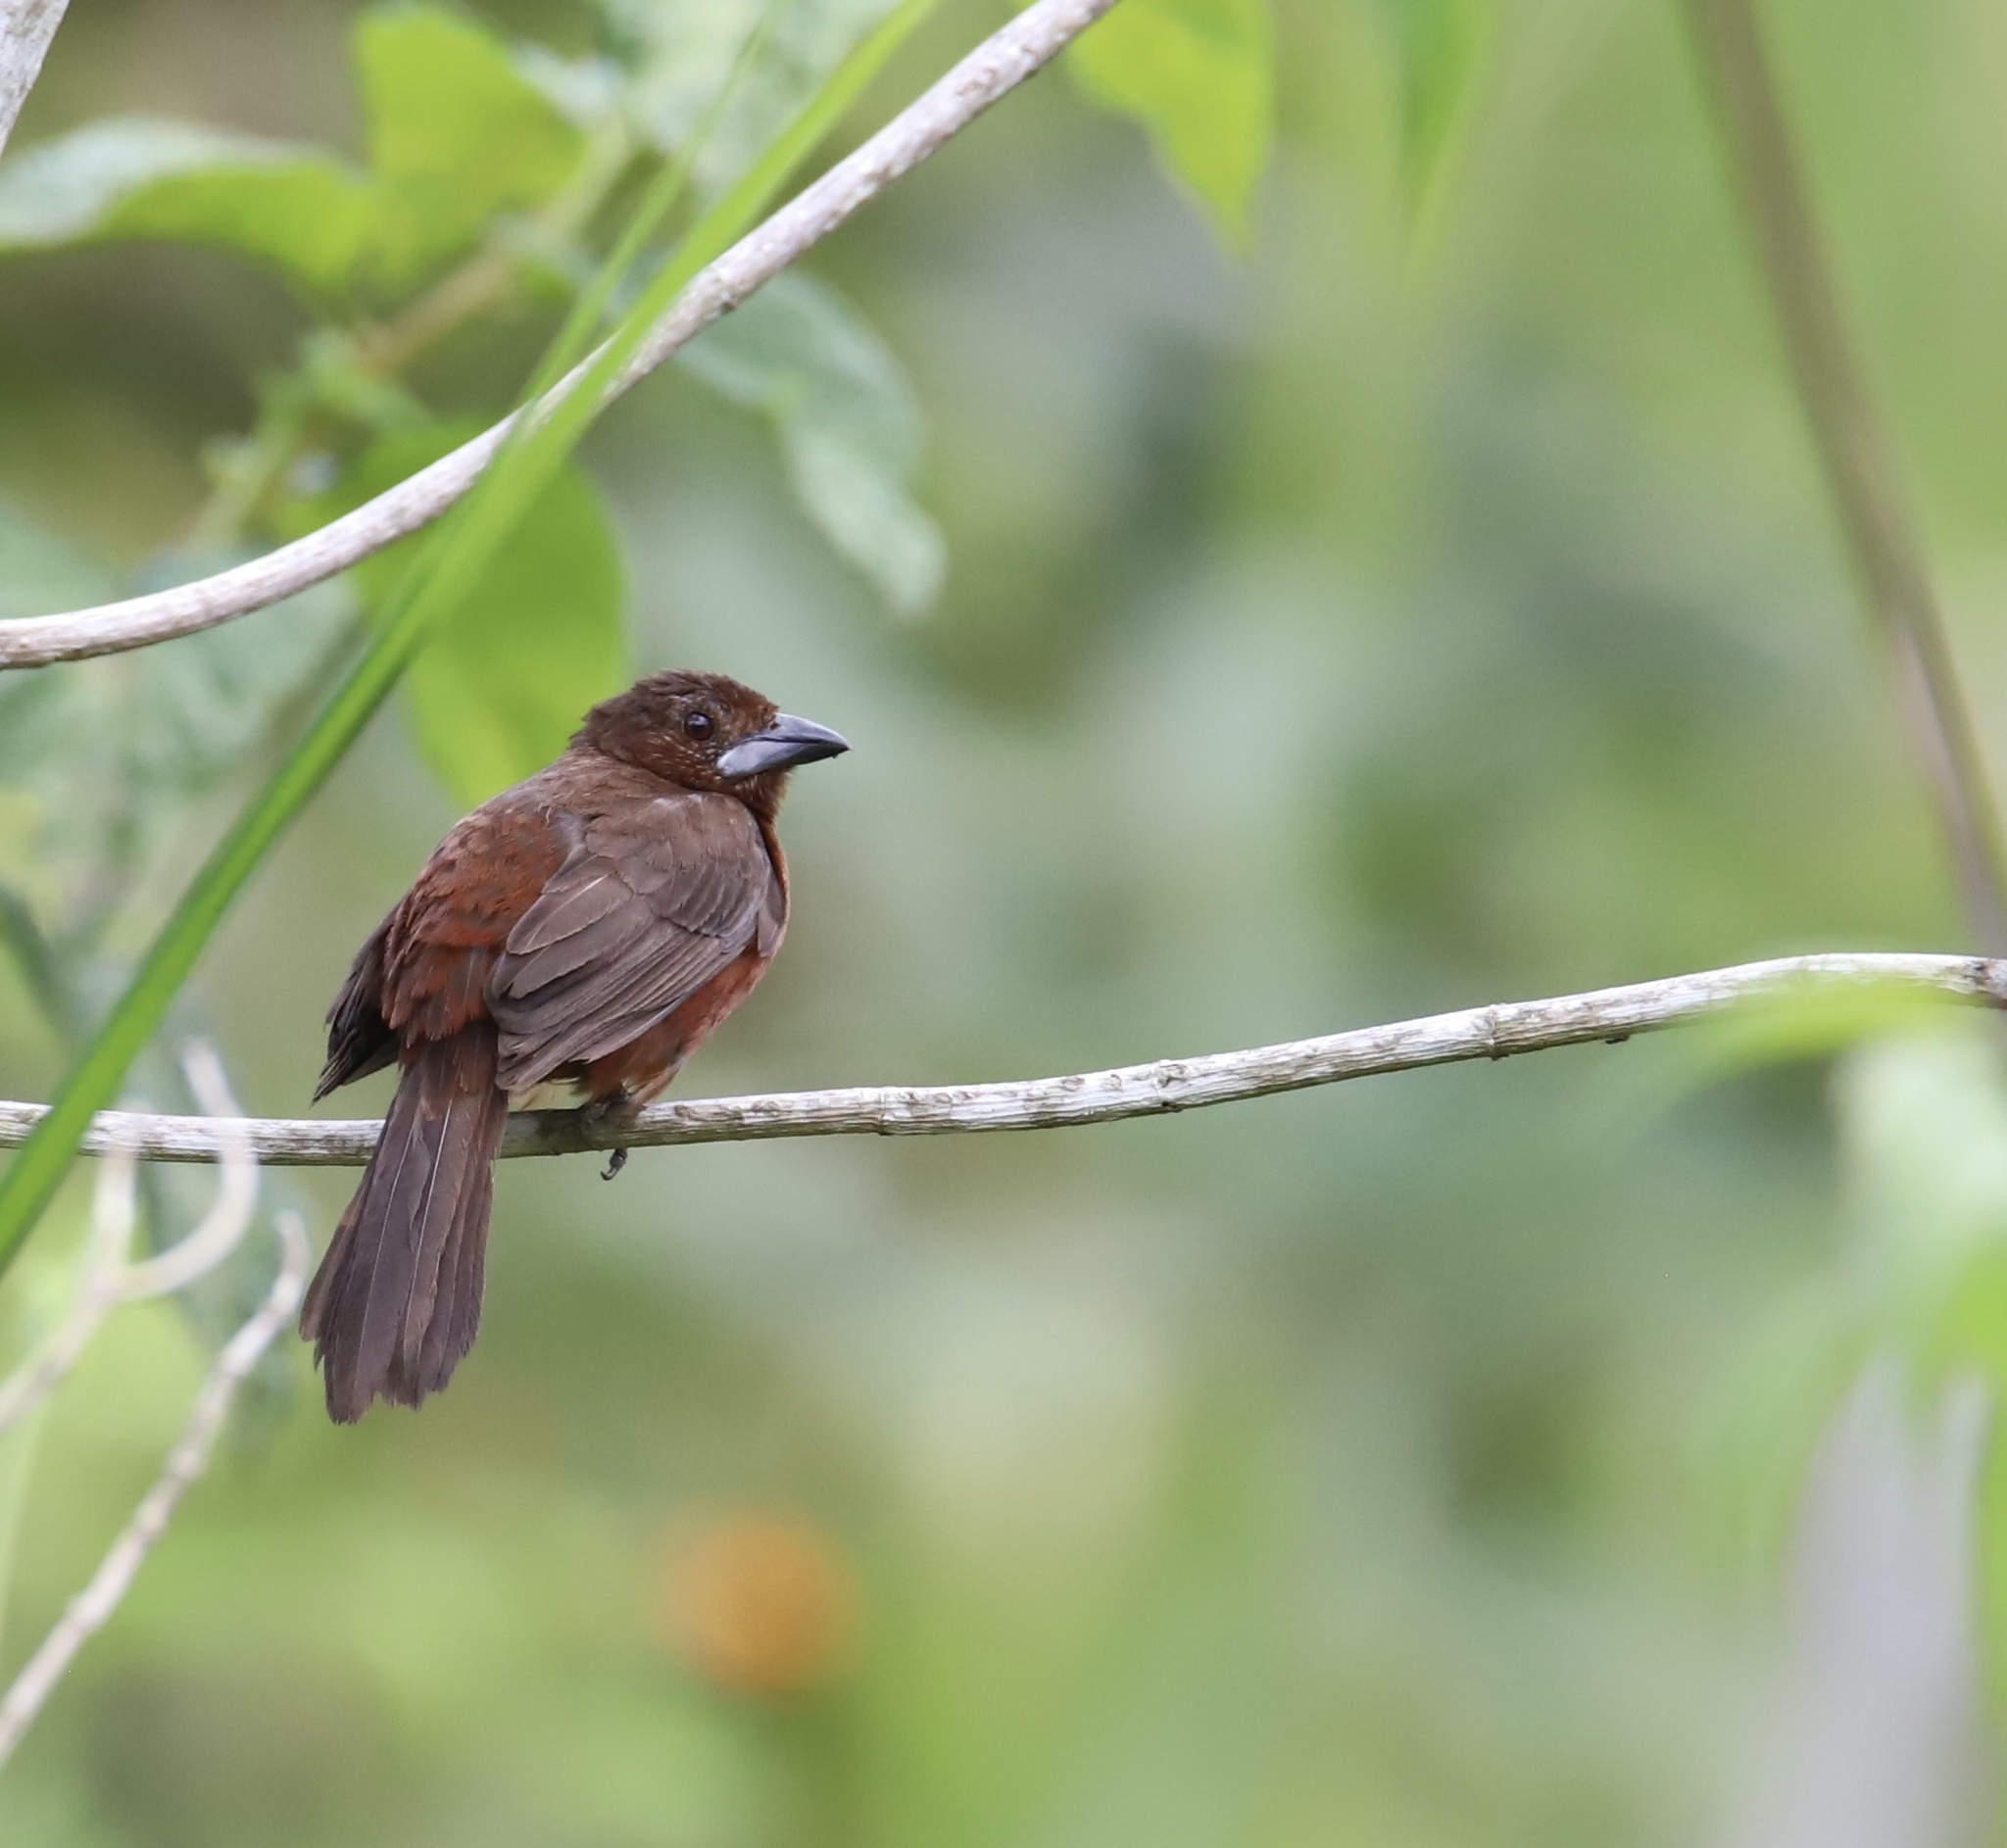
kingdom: Animalia
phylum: Chordata
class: Aves
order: Passeriformes
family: Thraupidae
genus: Ramphocelus
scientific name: Ramphocelus carbo
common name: Silver-beaked tanager
